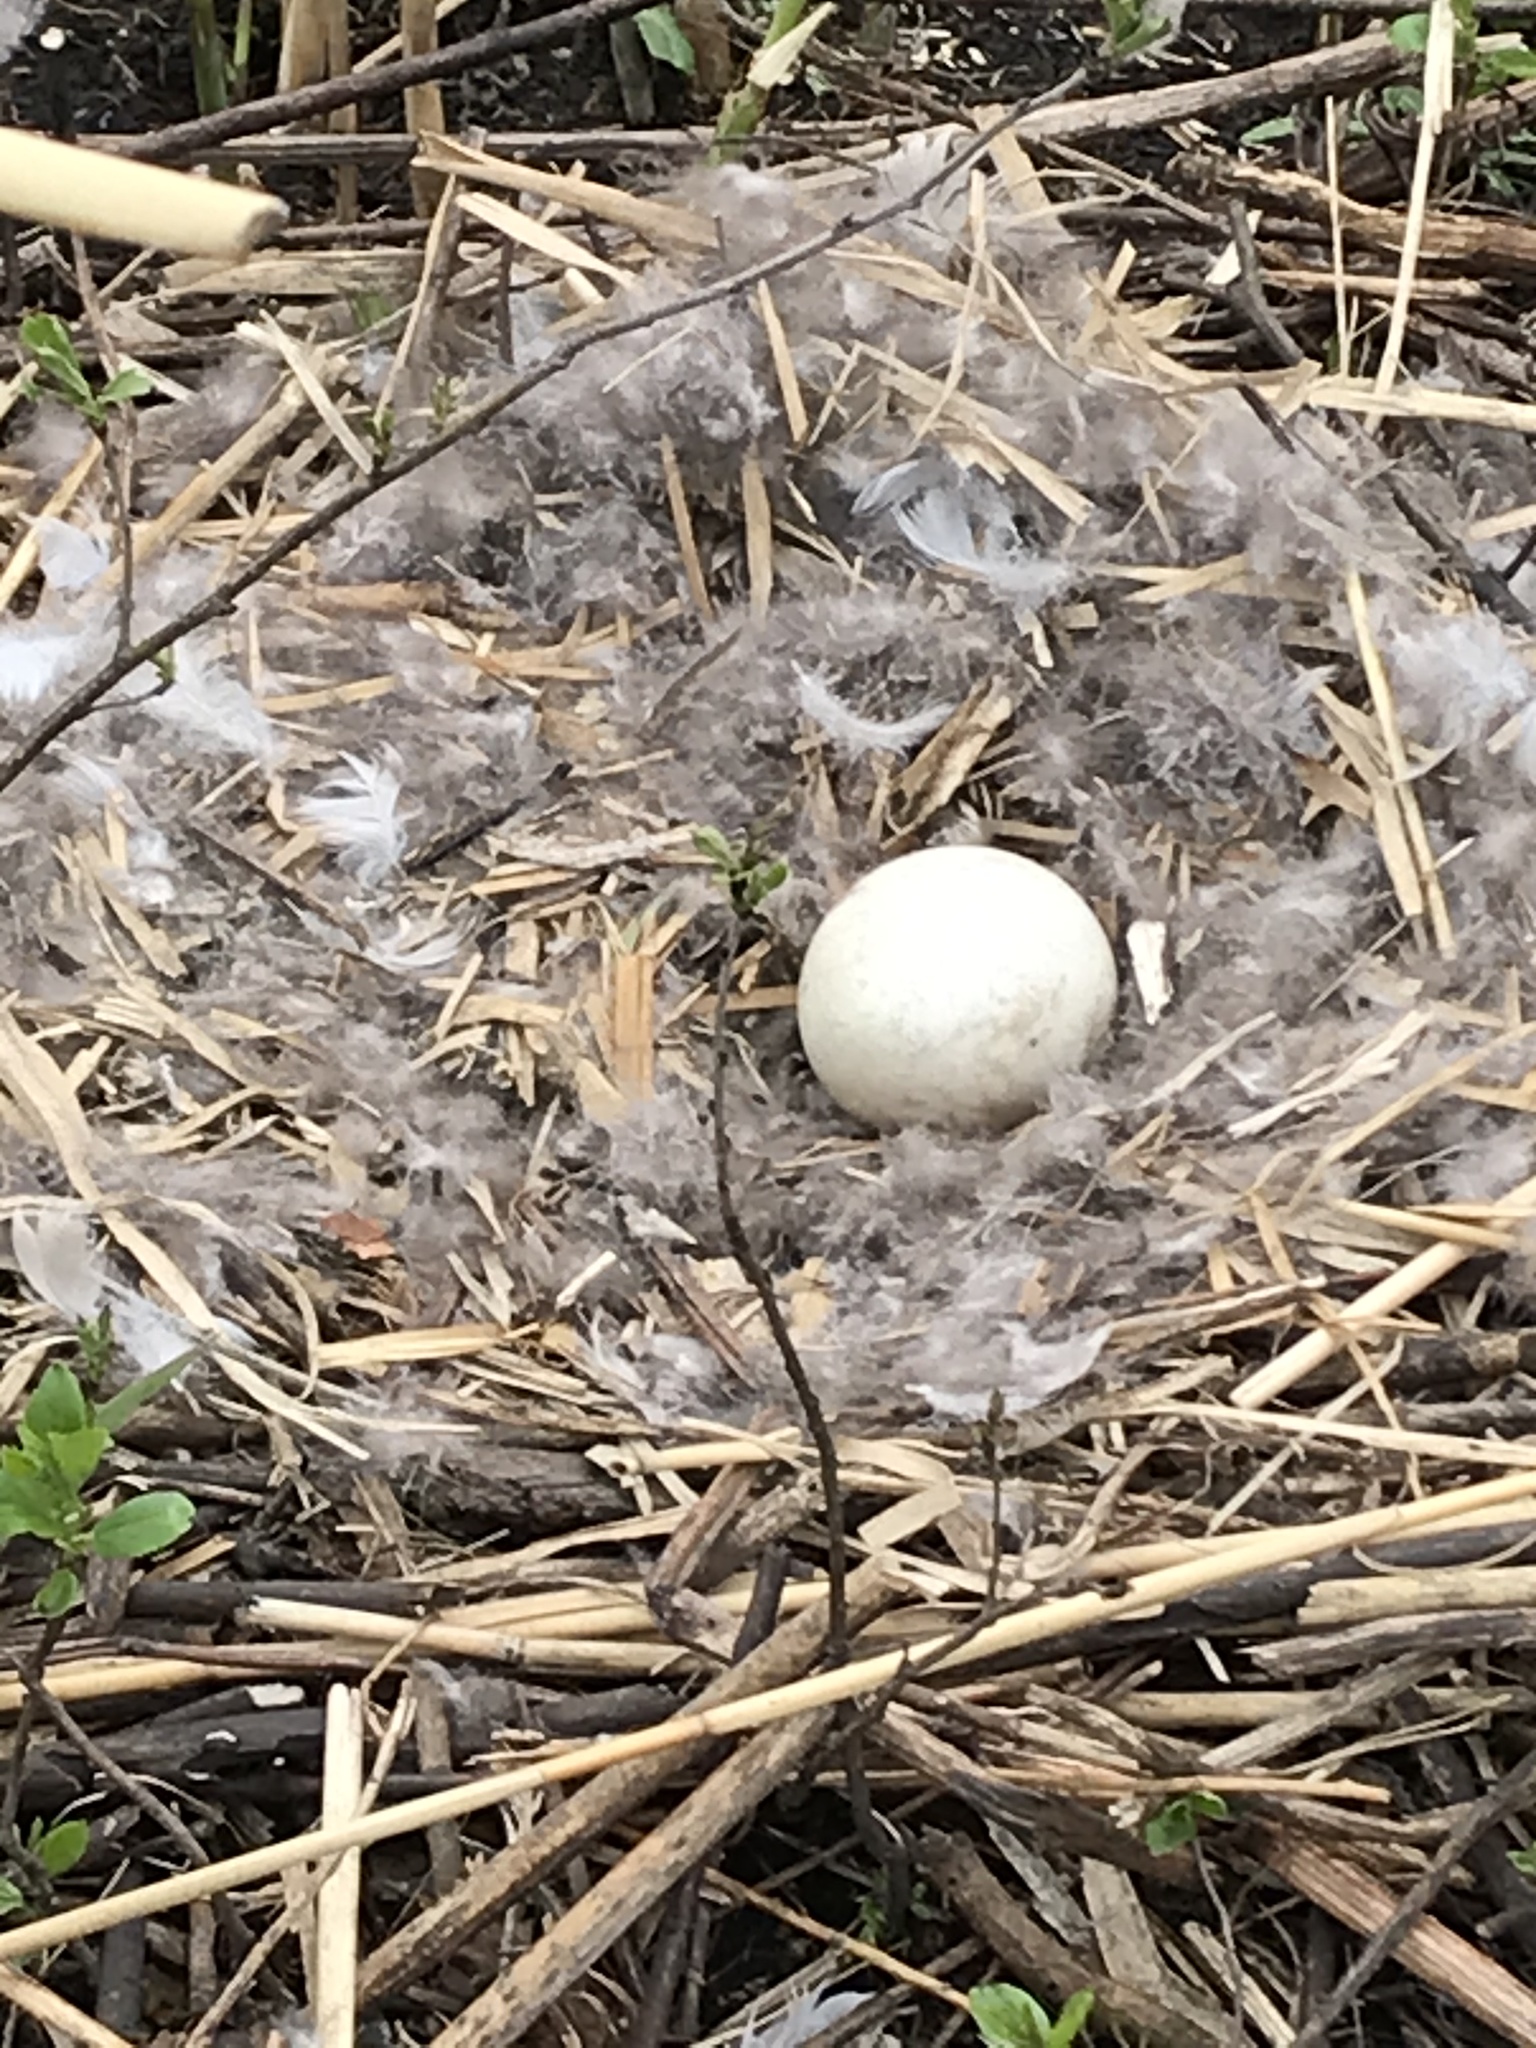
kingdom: Animalia
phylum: Chordata
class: Aves
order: Anseriformes
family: Anatidae
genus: Branta
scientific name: Branta canadensis
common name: Canada goose
